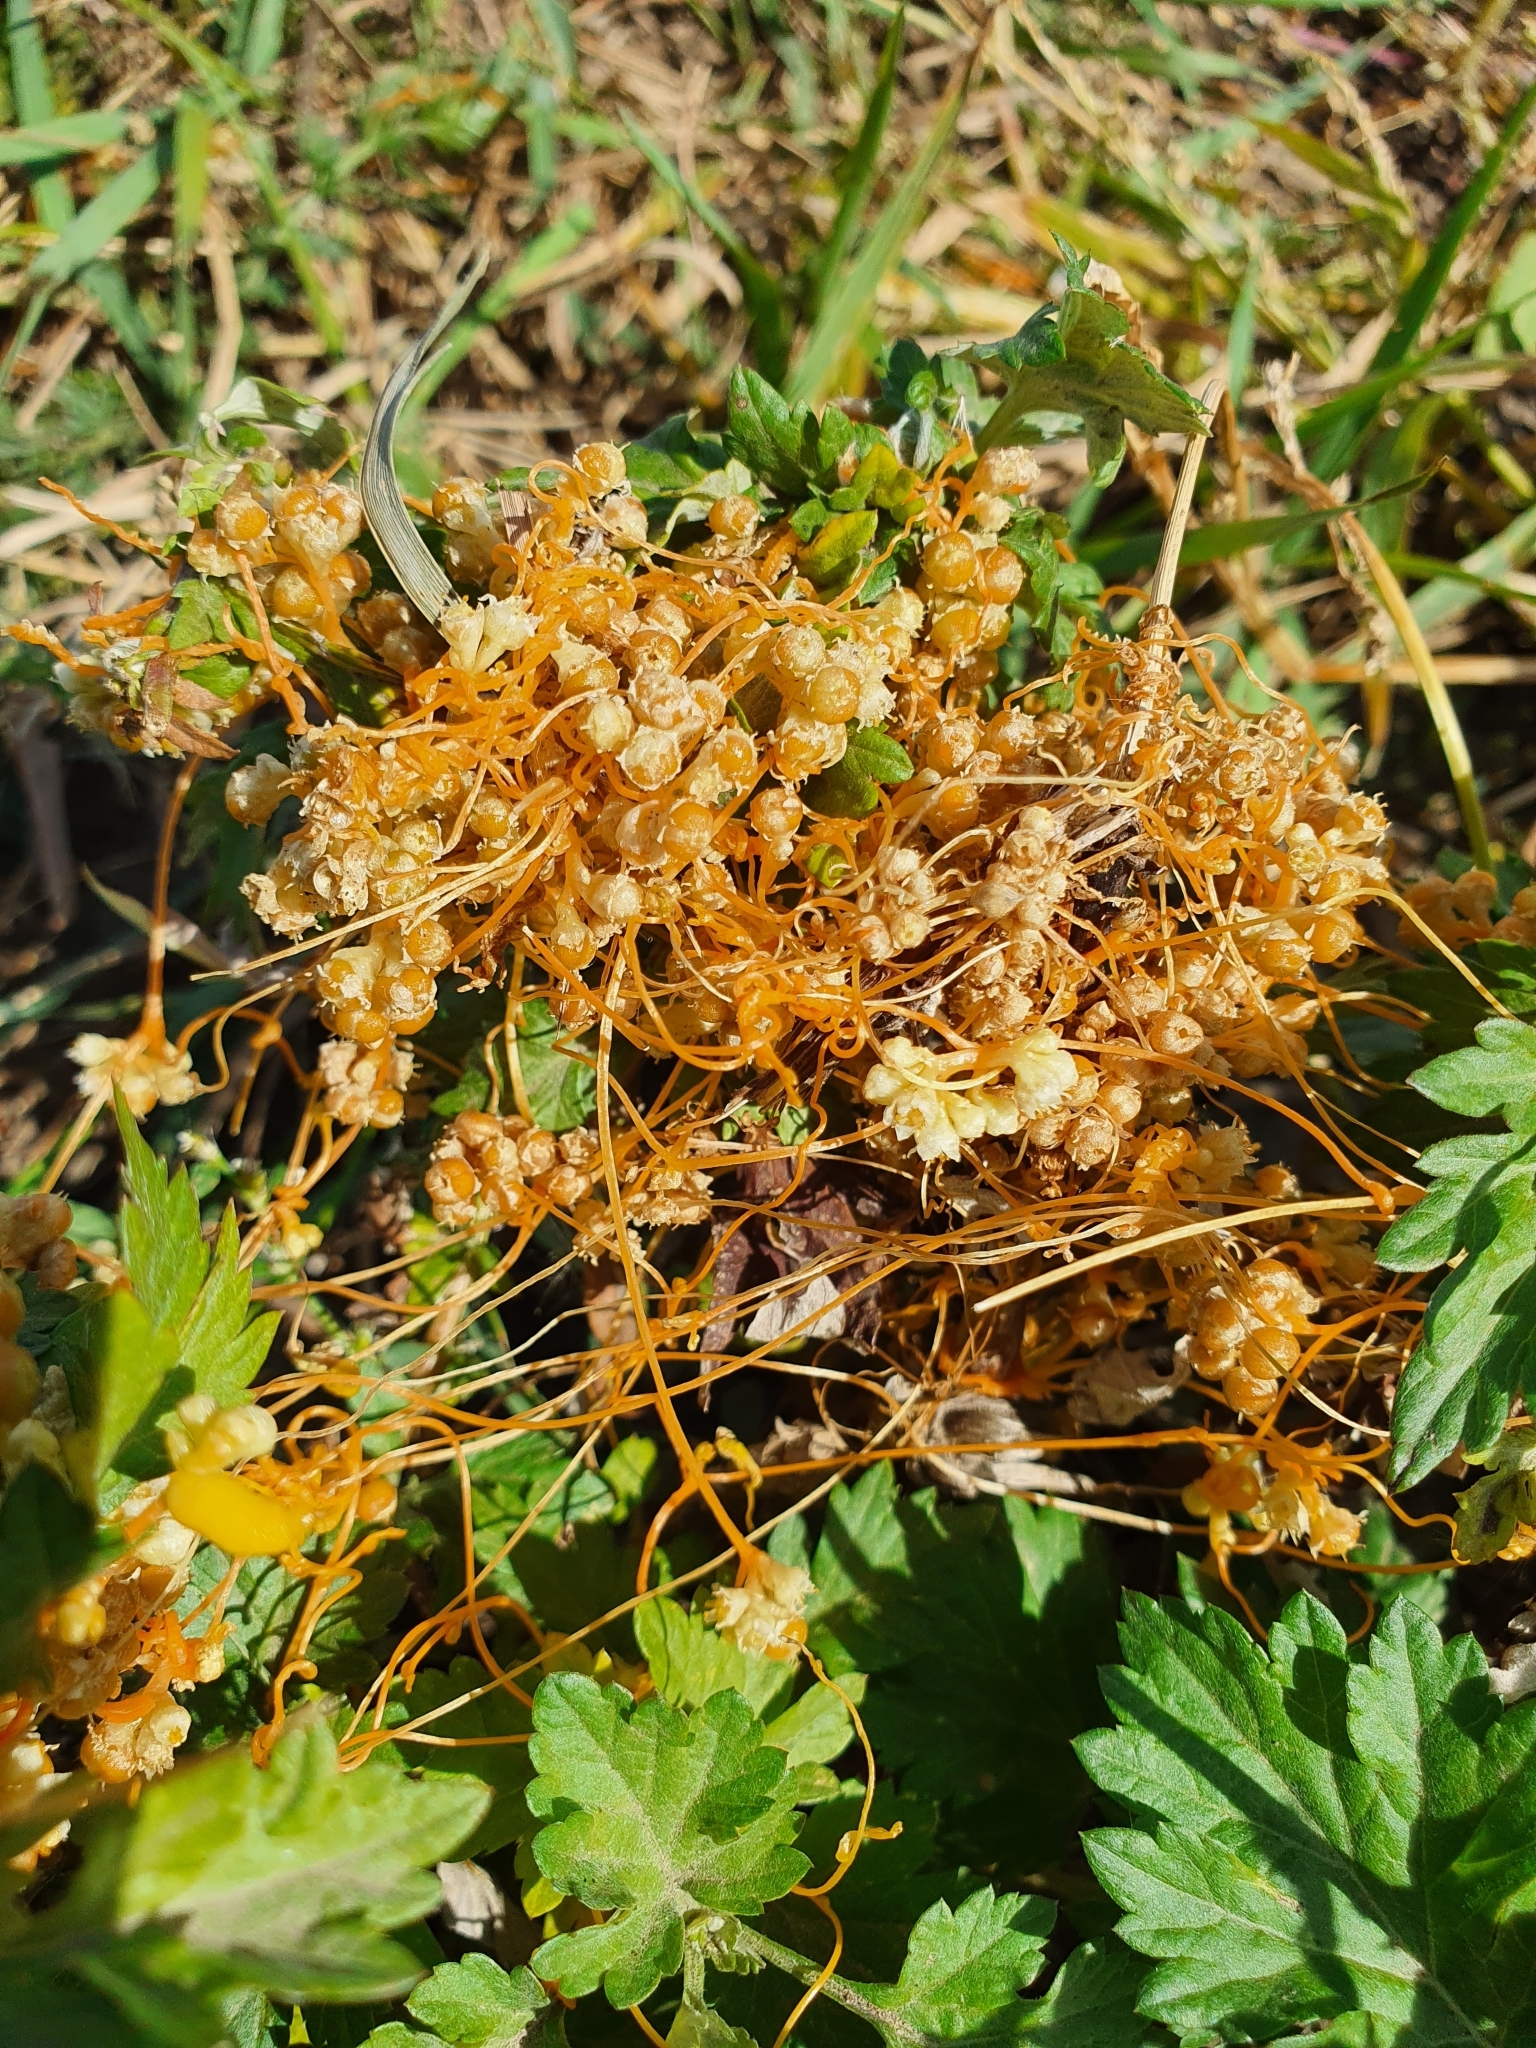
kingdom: Plantae
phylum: Tracheophyta
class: Magnoliopsida
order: Solanales
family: Convolvulaceae
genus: Cuscuta
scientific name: Cuscuta campestris
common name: Yellow dodder
